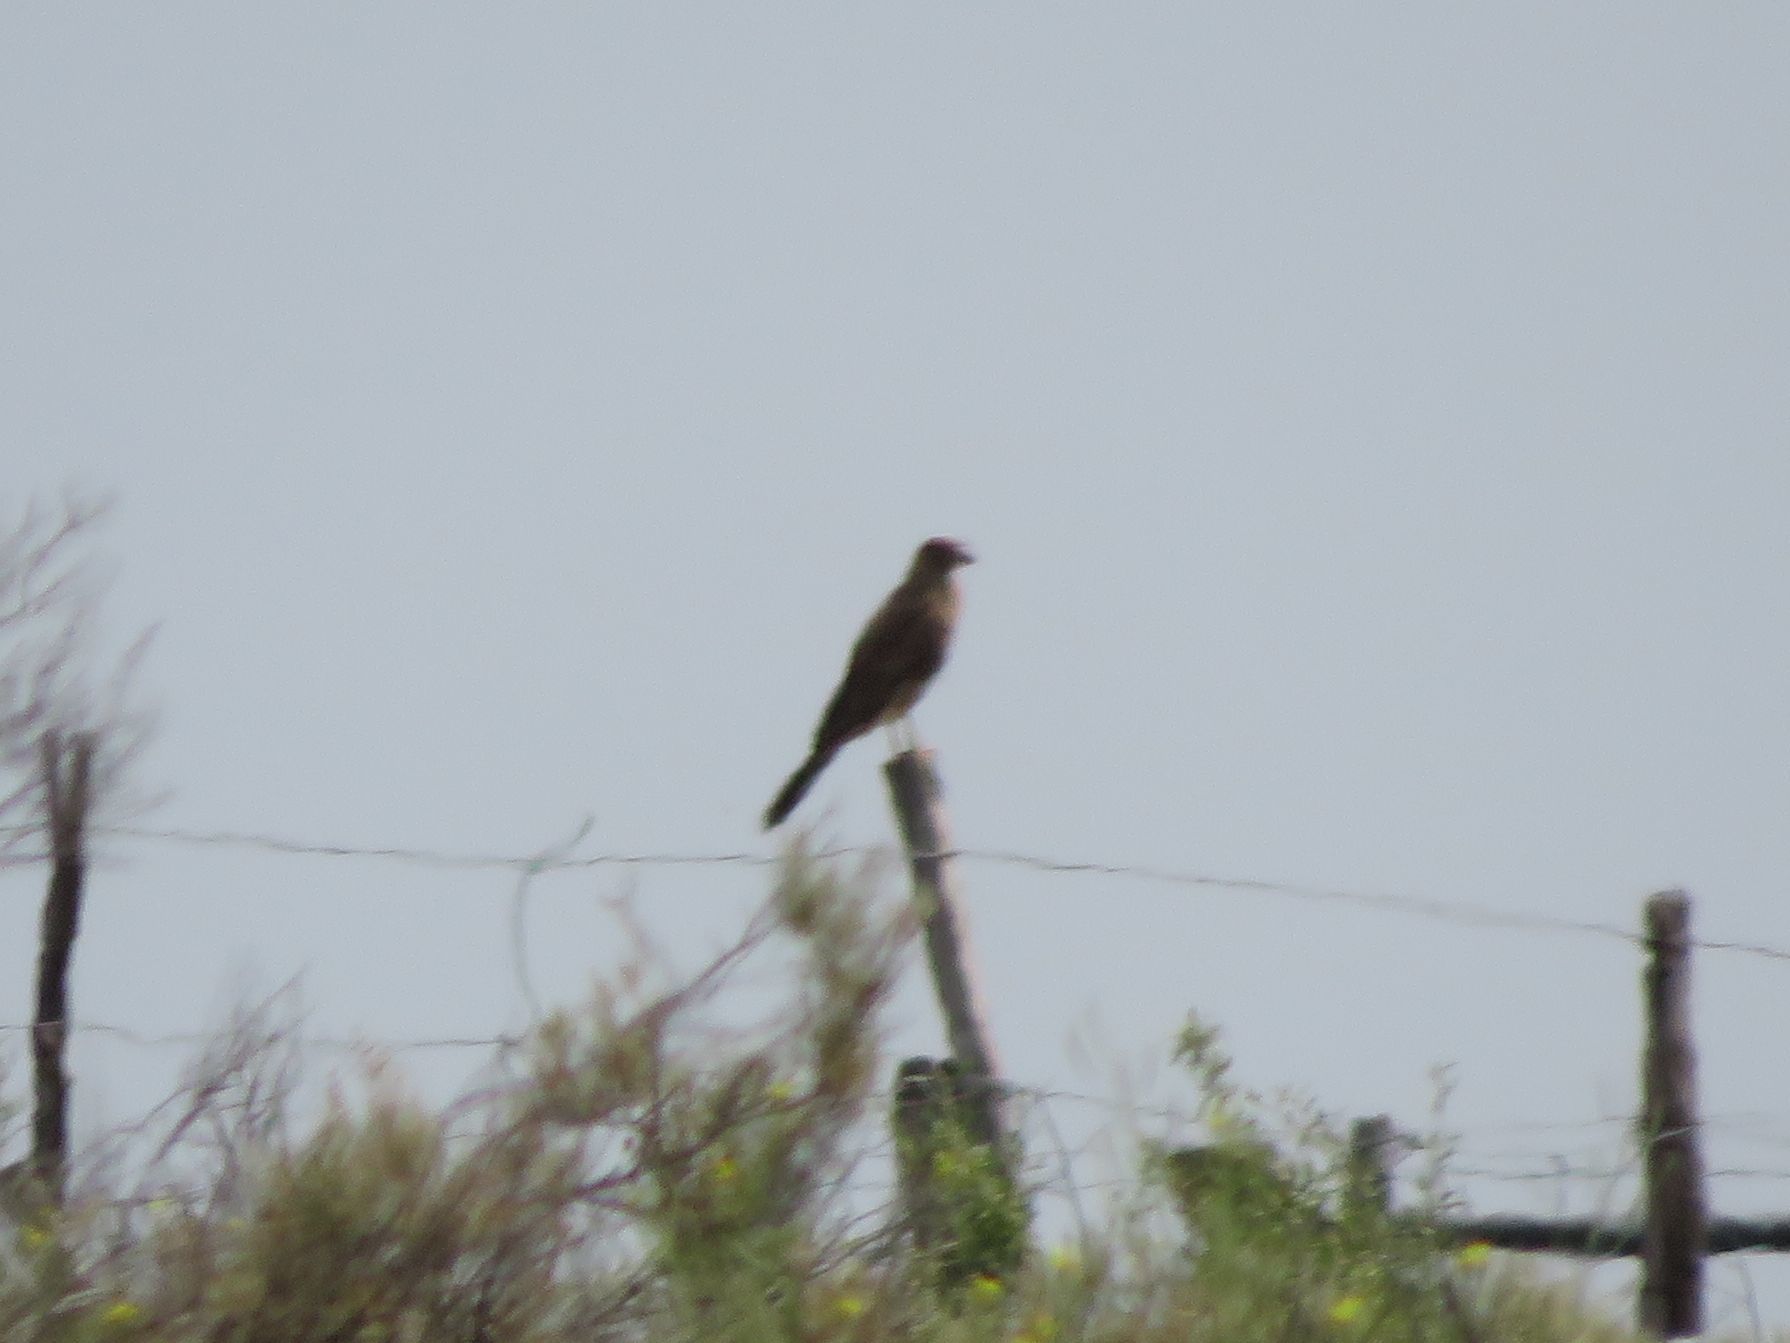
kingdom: Animalia
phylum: Chordata
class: Aves
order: Falconiformes
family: Falconidae
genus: Daptrius
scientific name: Daptrius
